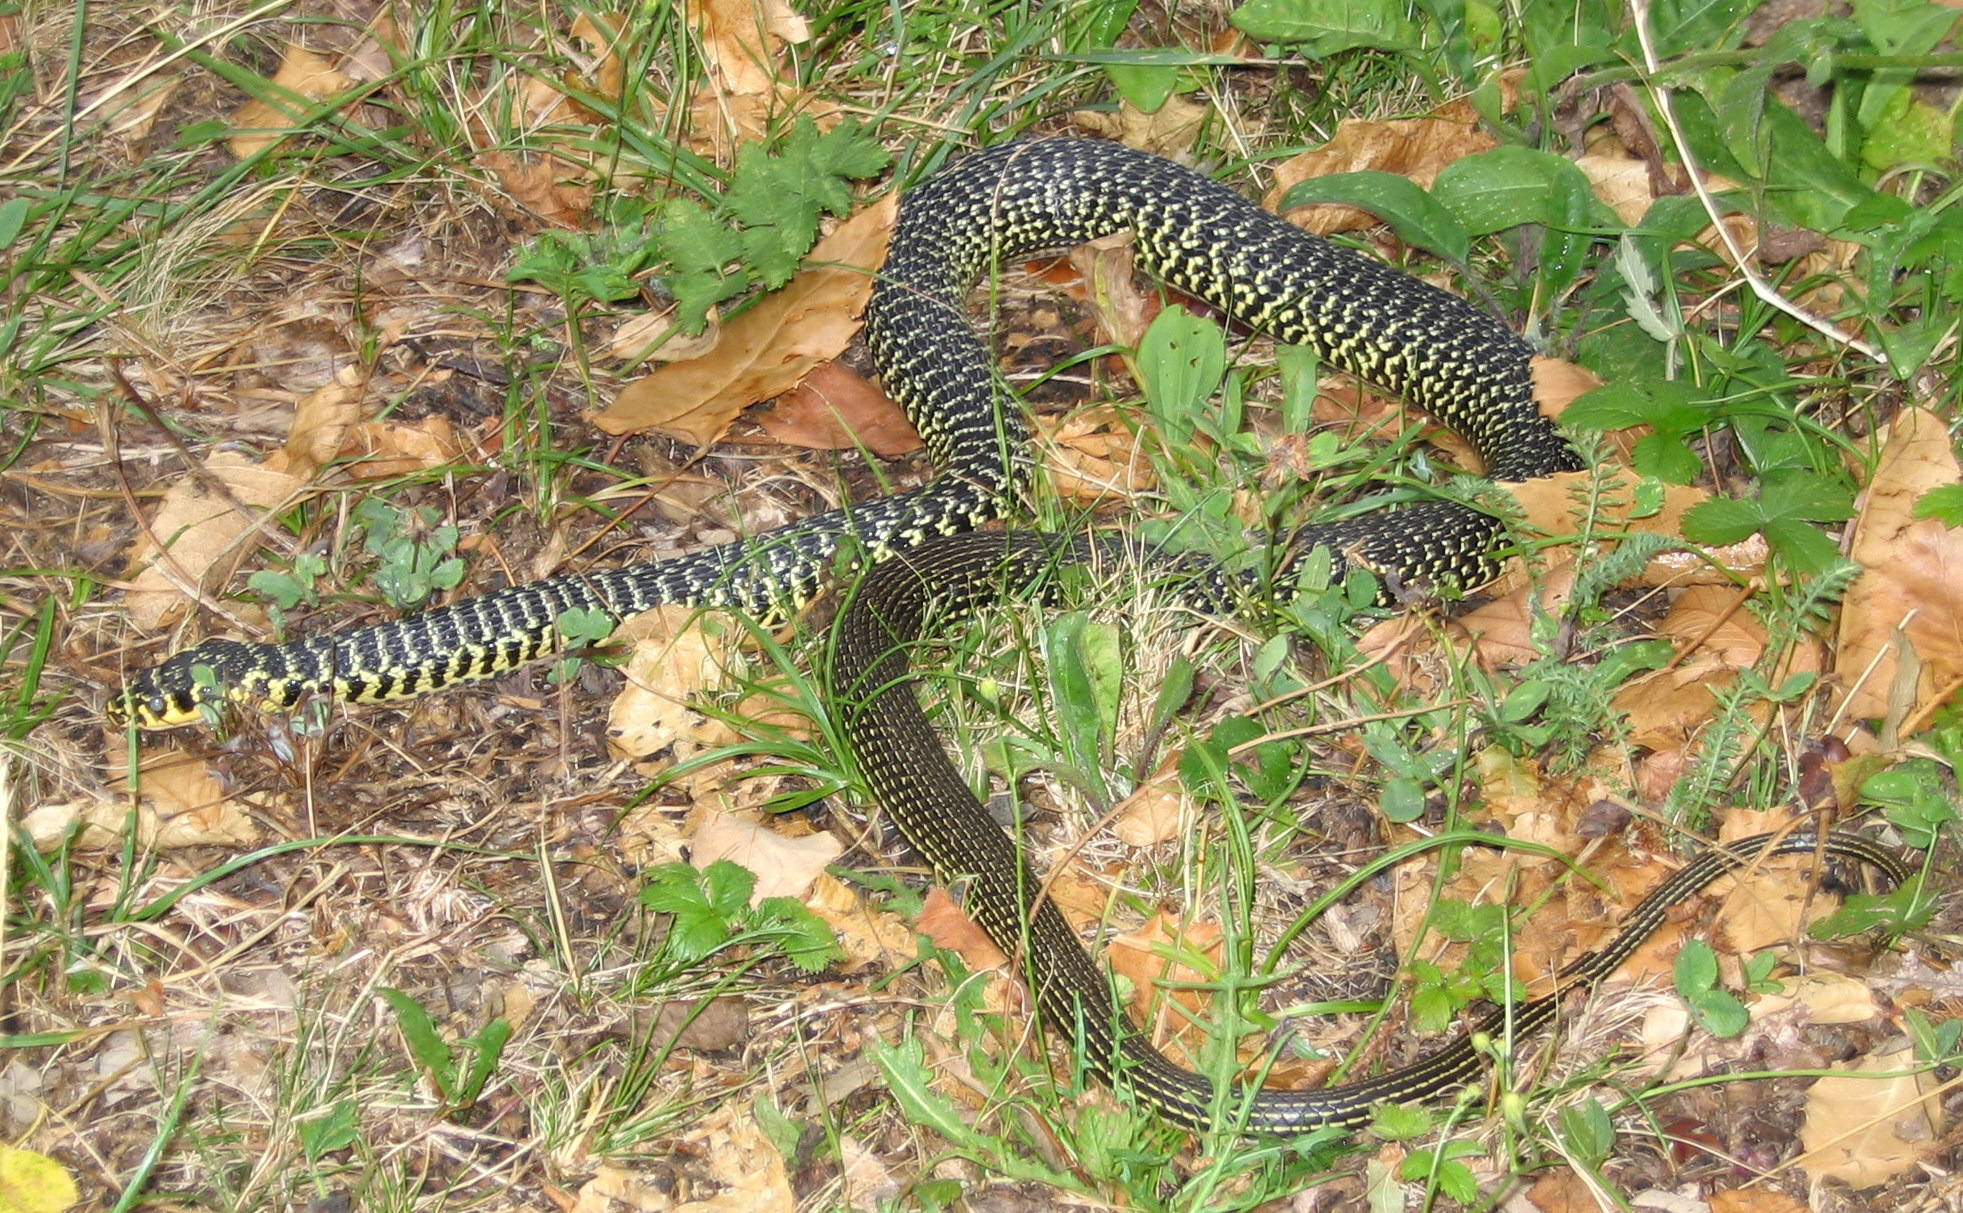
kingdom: Animalia
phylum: Chordata
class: Squamata
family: Colubridae
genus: Hierophis
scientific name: Hierophis viridiflavus
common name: Green whip snake
